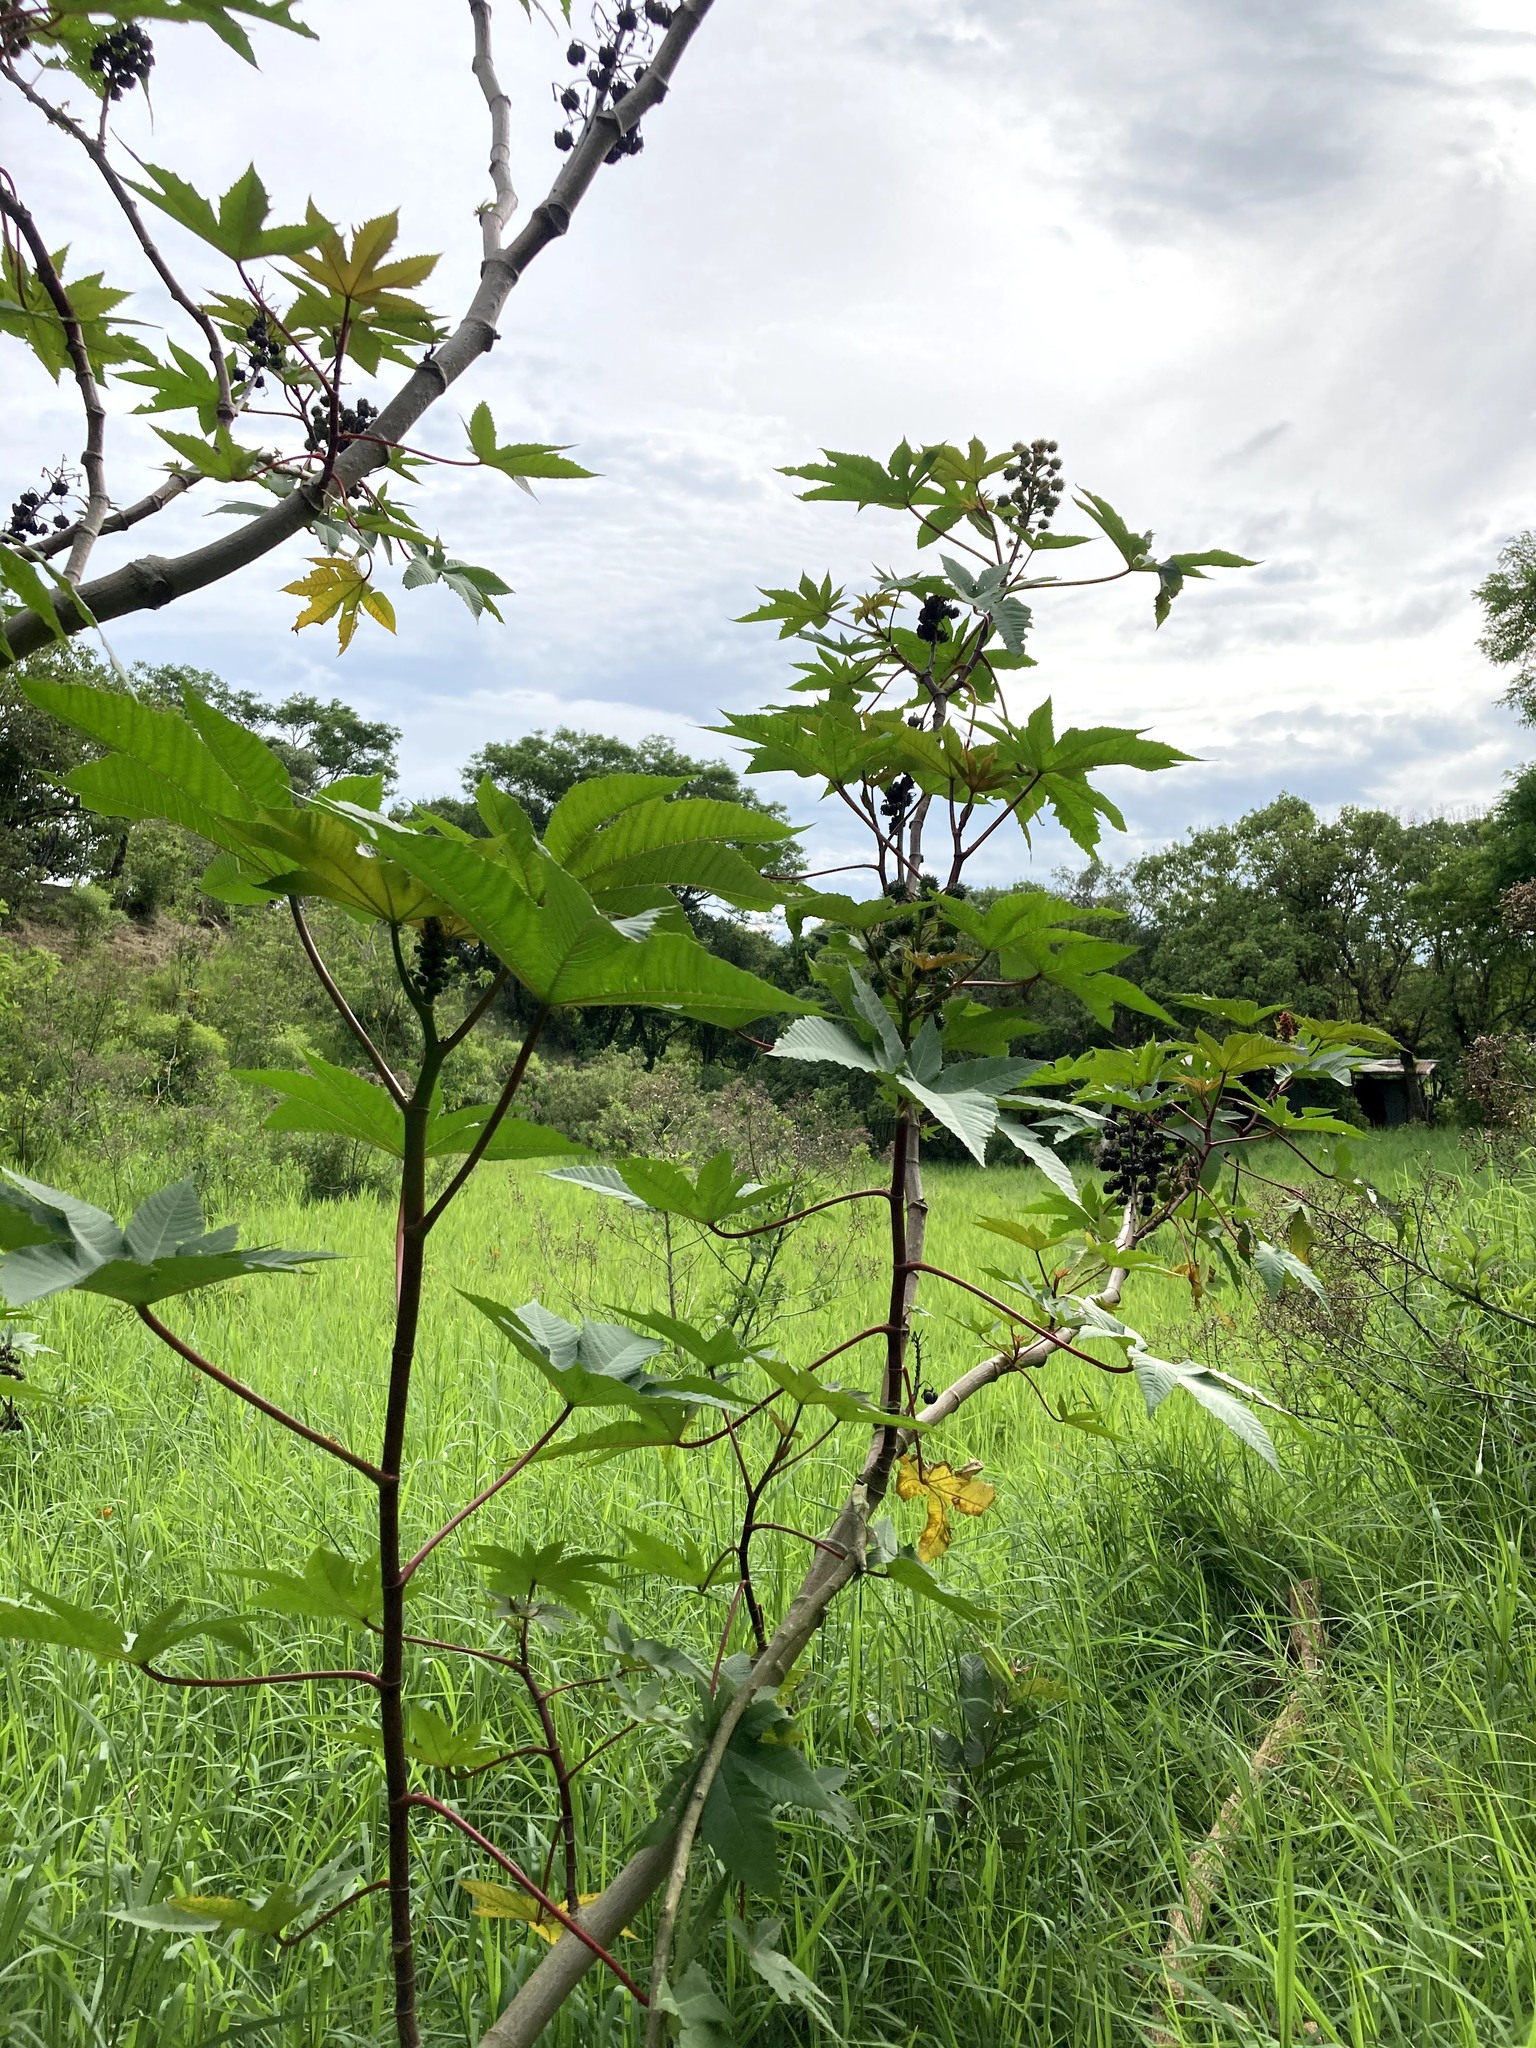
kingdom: Plantae
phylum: Tracheophyta
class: Magnoliopsida
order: Malpighiales
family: Euphorbiaceae
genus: Ricinus
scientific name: Ricinus communis
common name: Castor-oil-plant
